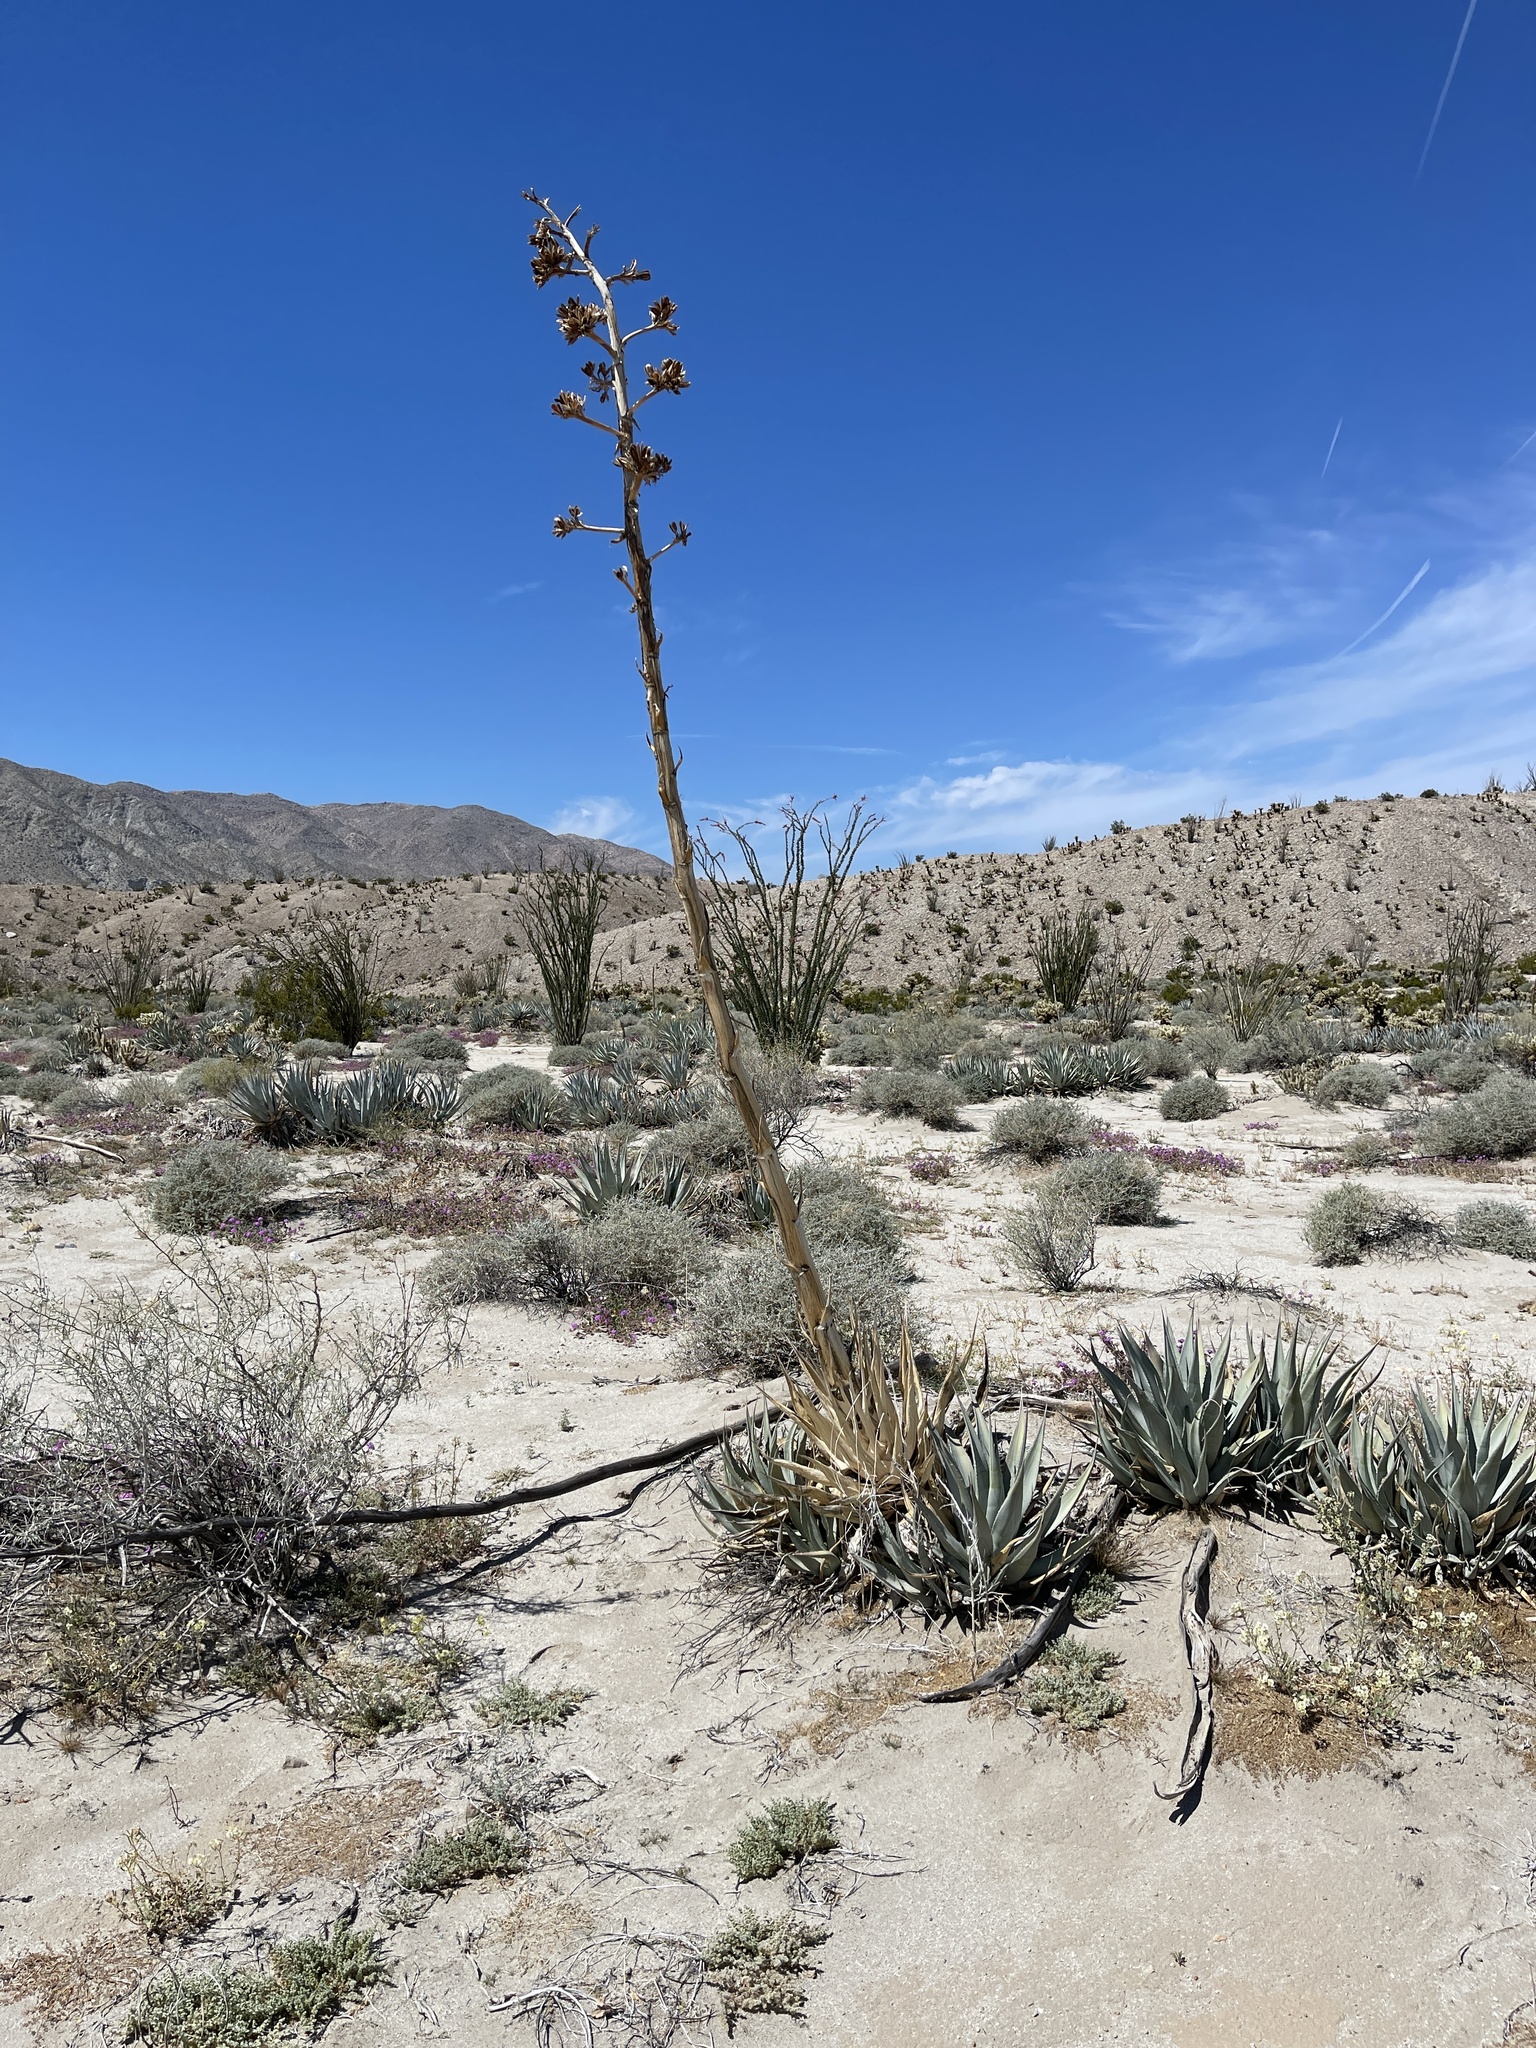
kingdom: Plantae
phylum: Tracheophyta
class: Liliopsida
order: Asparagales
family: Asparagaceae
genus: Agave
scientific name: Agave deserti
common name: Desert agave
